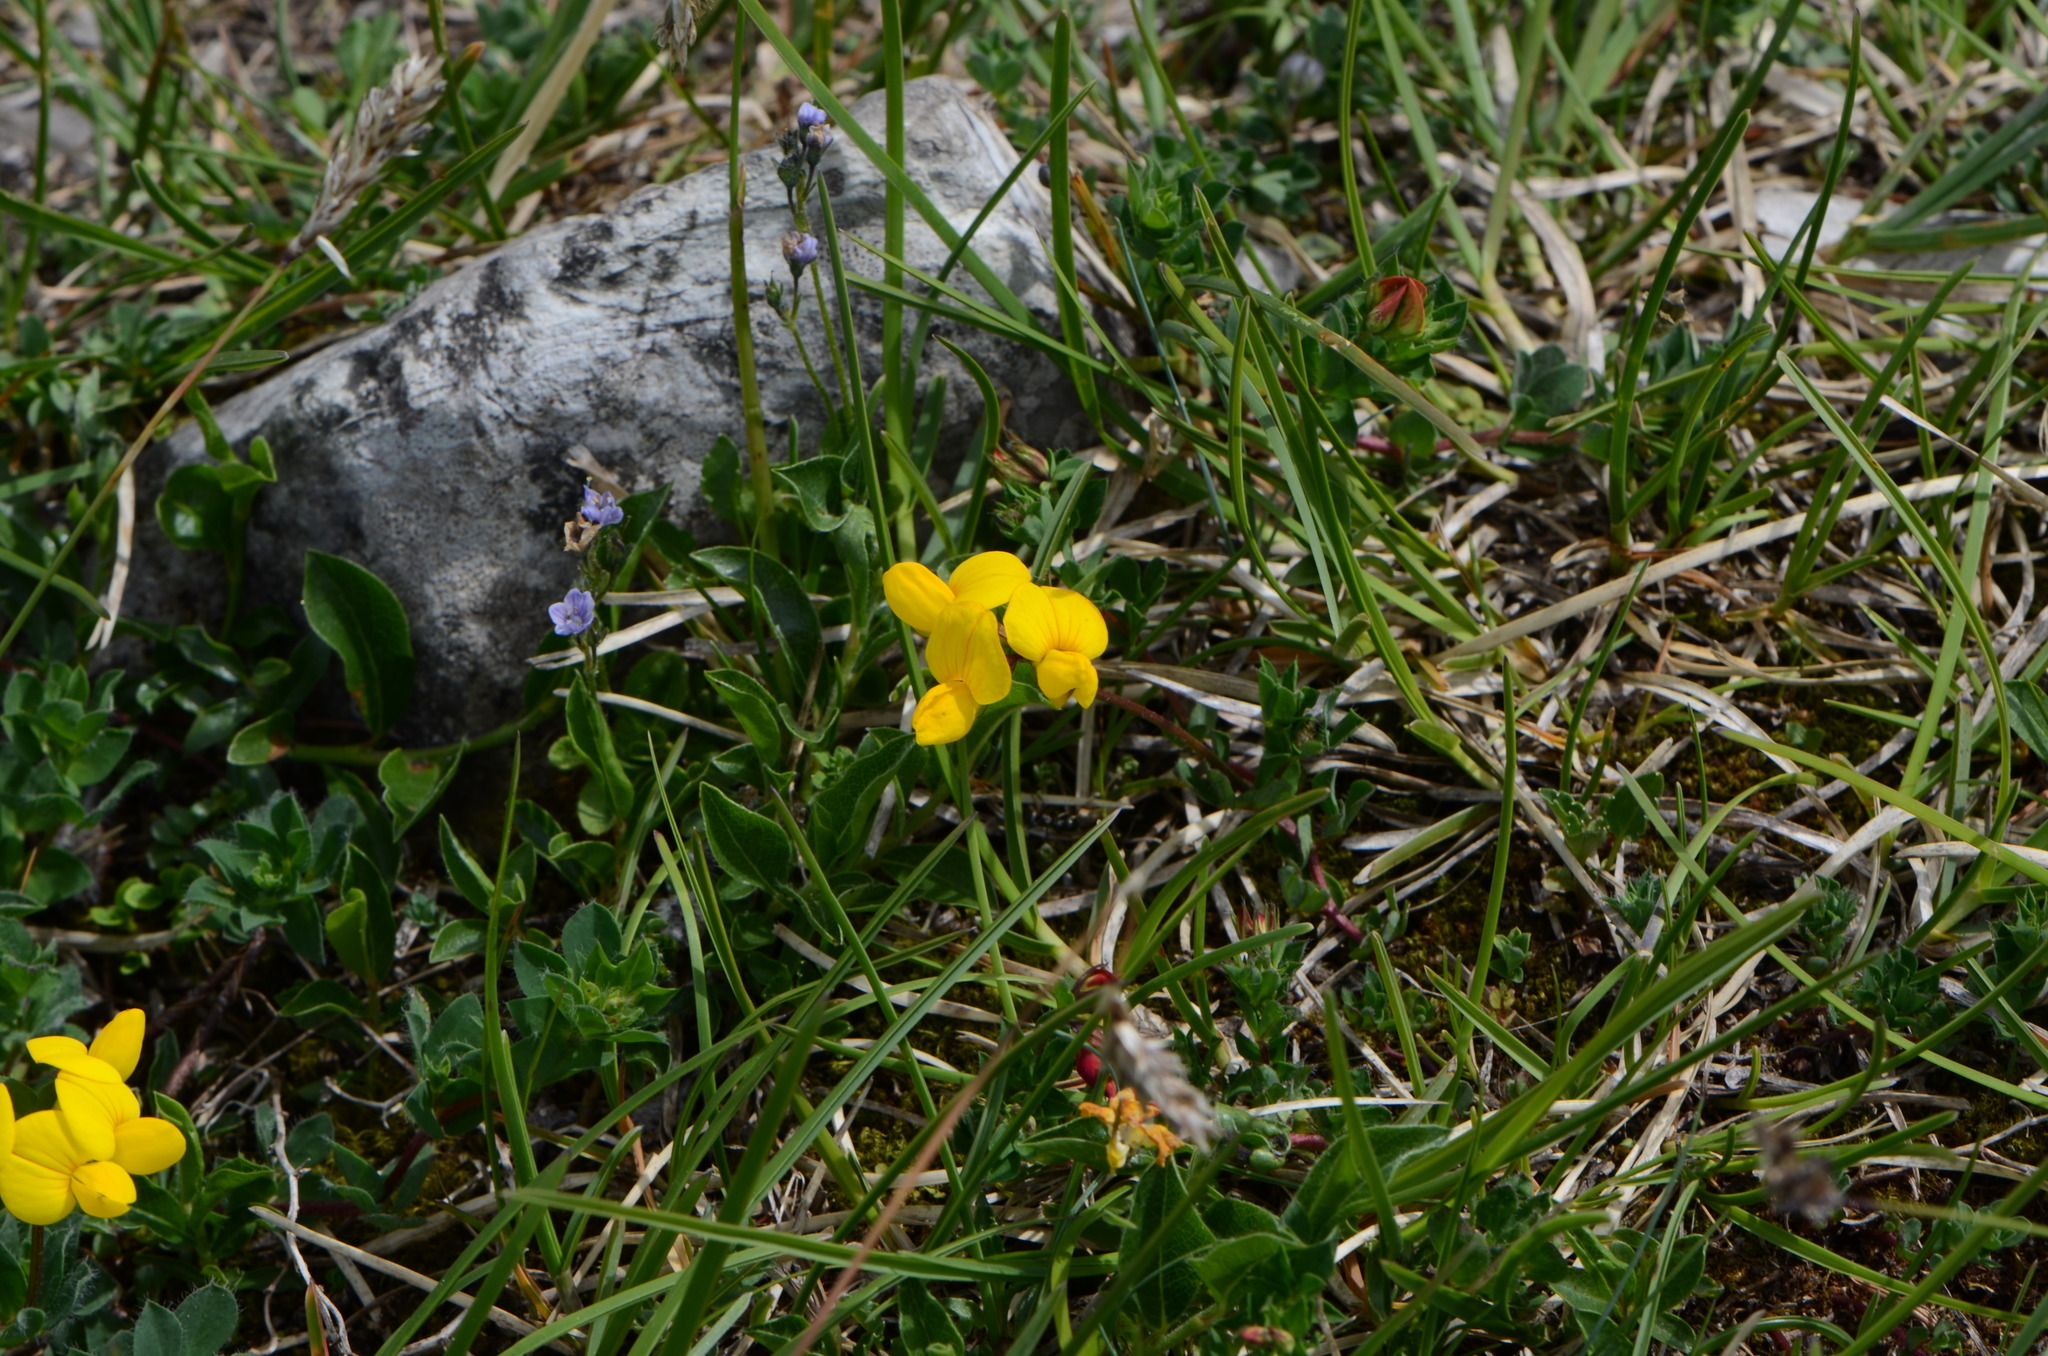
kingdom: Plantae
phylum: Tracheophyta
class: Magnoliopsida
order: Fabales
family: Fabaceae
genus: Lotus
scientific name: Lotus corniculatus
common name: Common bird's-foot-trefoil
